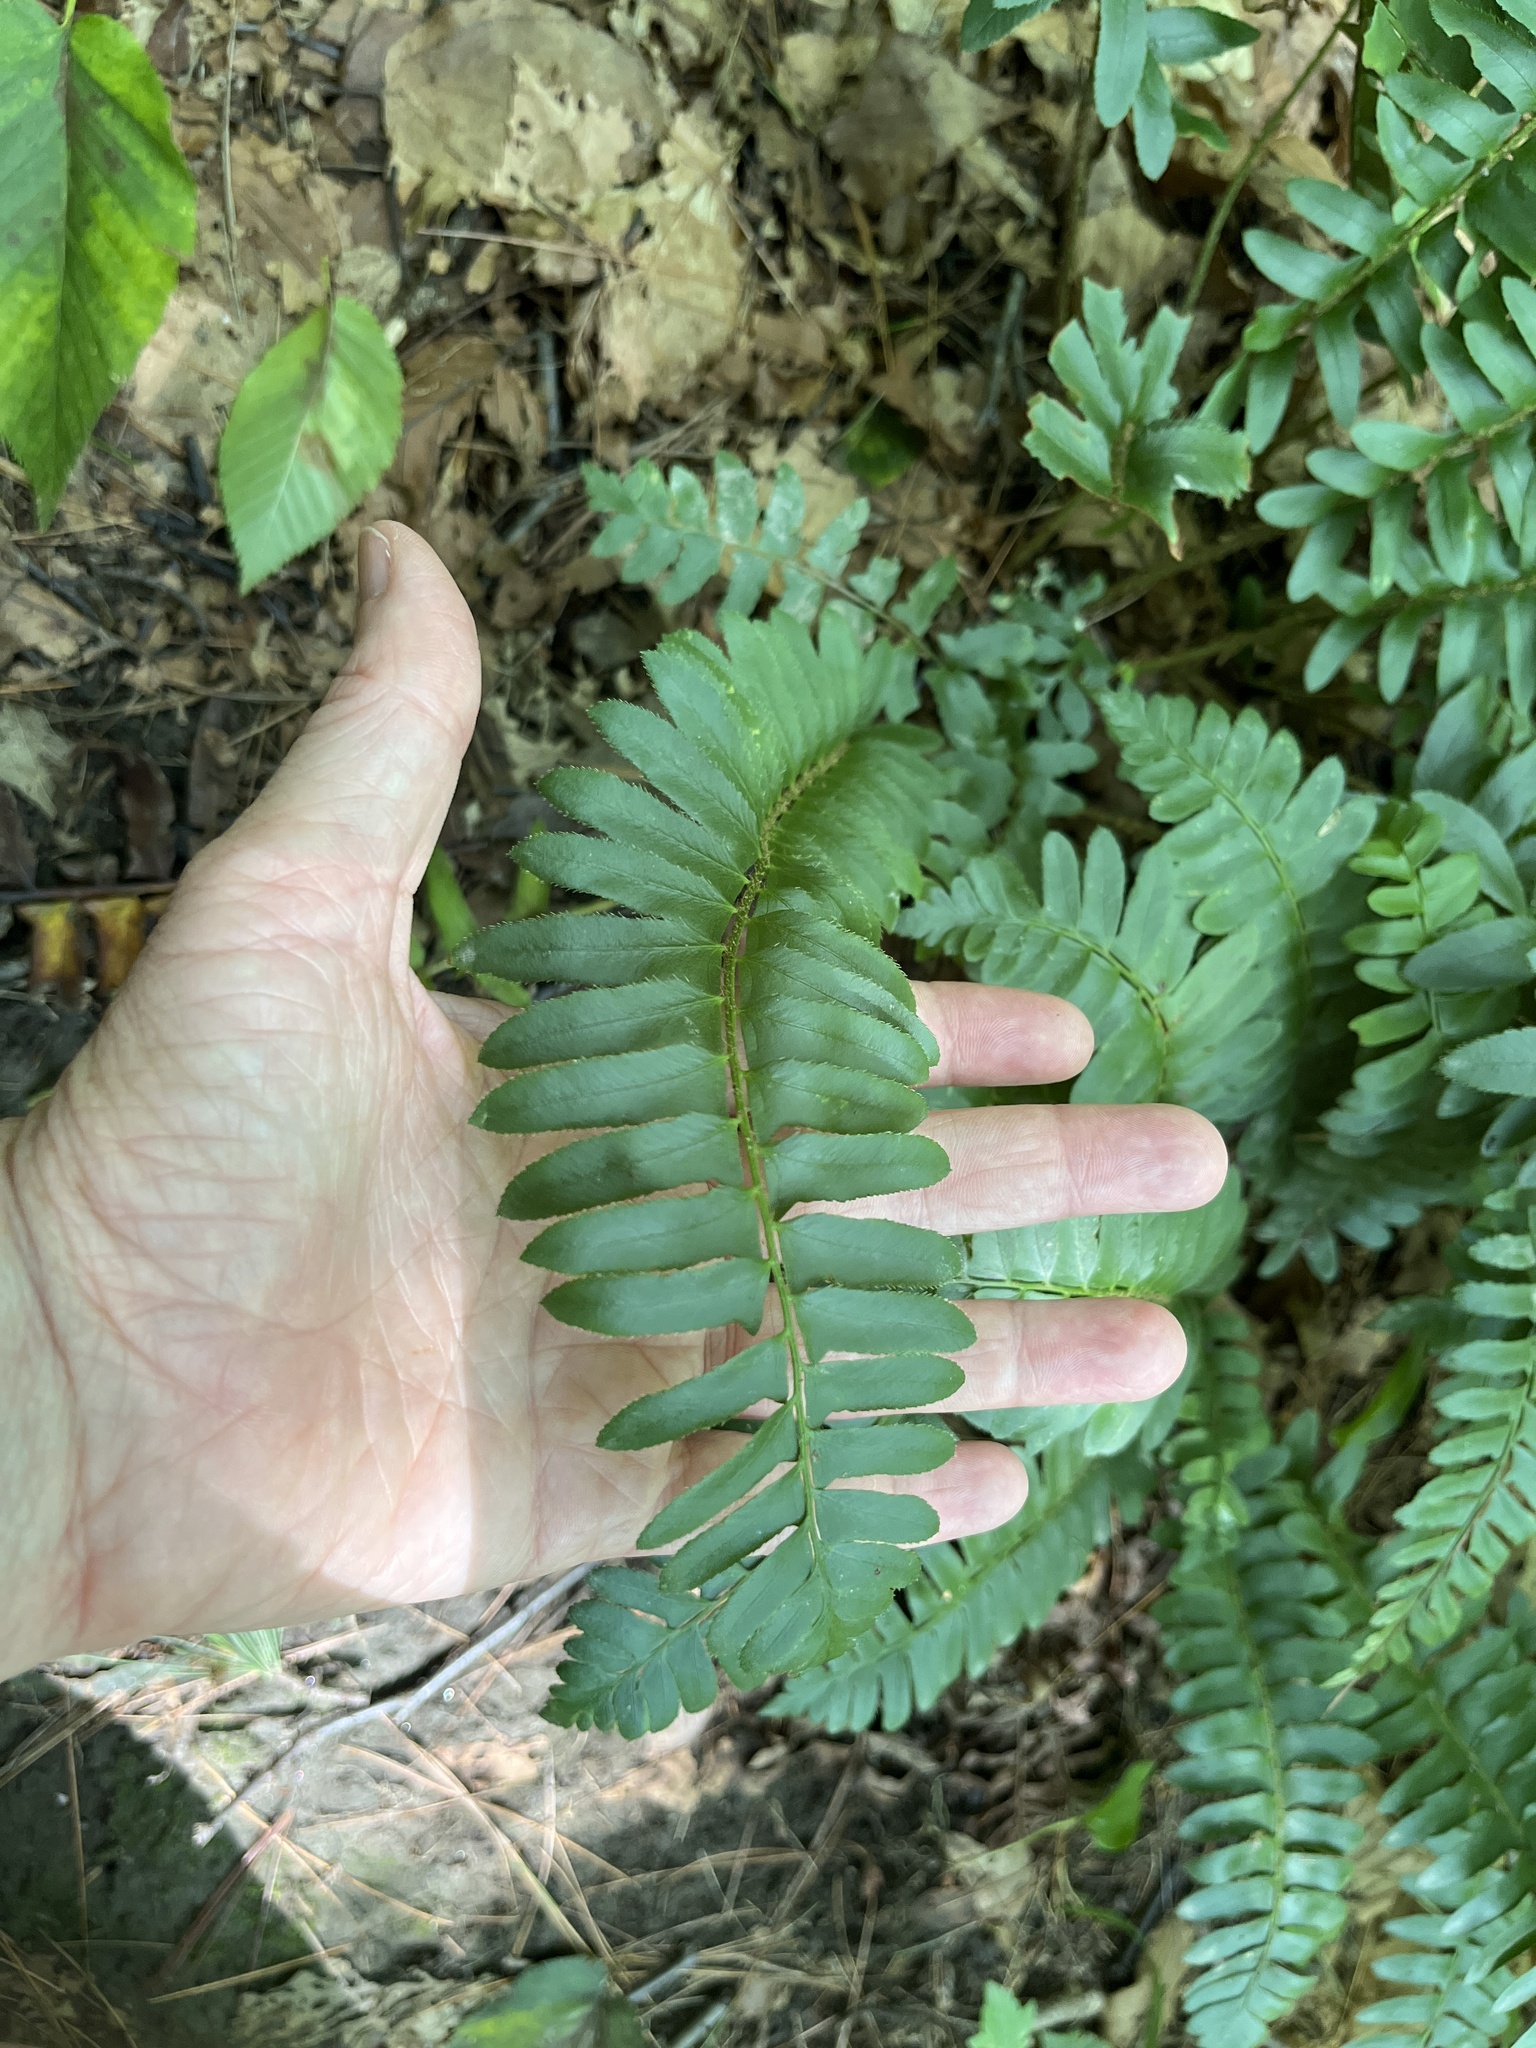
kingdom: Plantae
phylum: Tracheophyta
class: Polypodiopsida
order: Polypodiales
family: Dryopteridaceae
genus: Polystichum
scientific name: Polystichum acrostichoides
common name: Christmas fern
